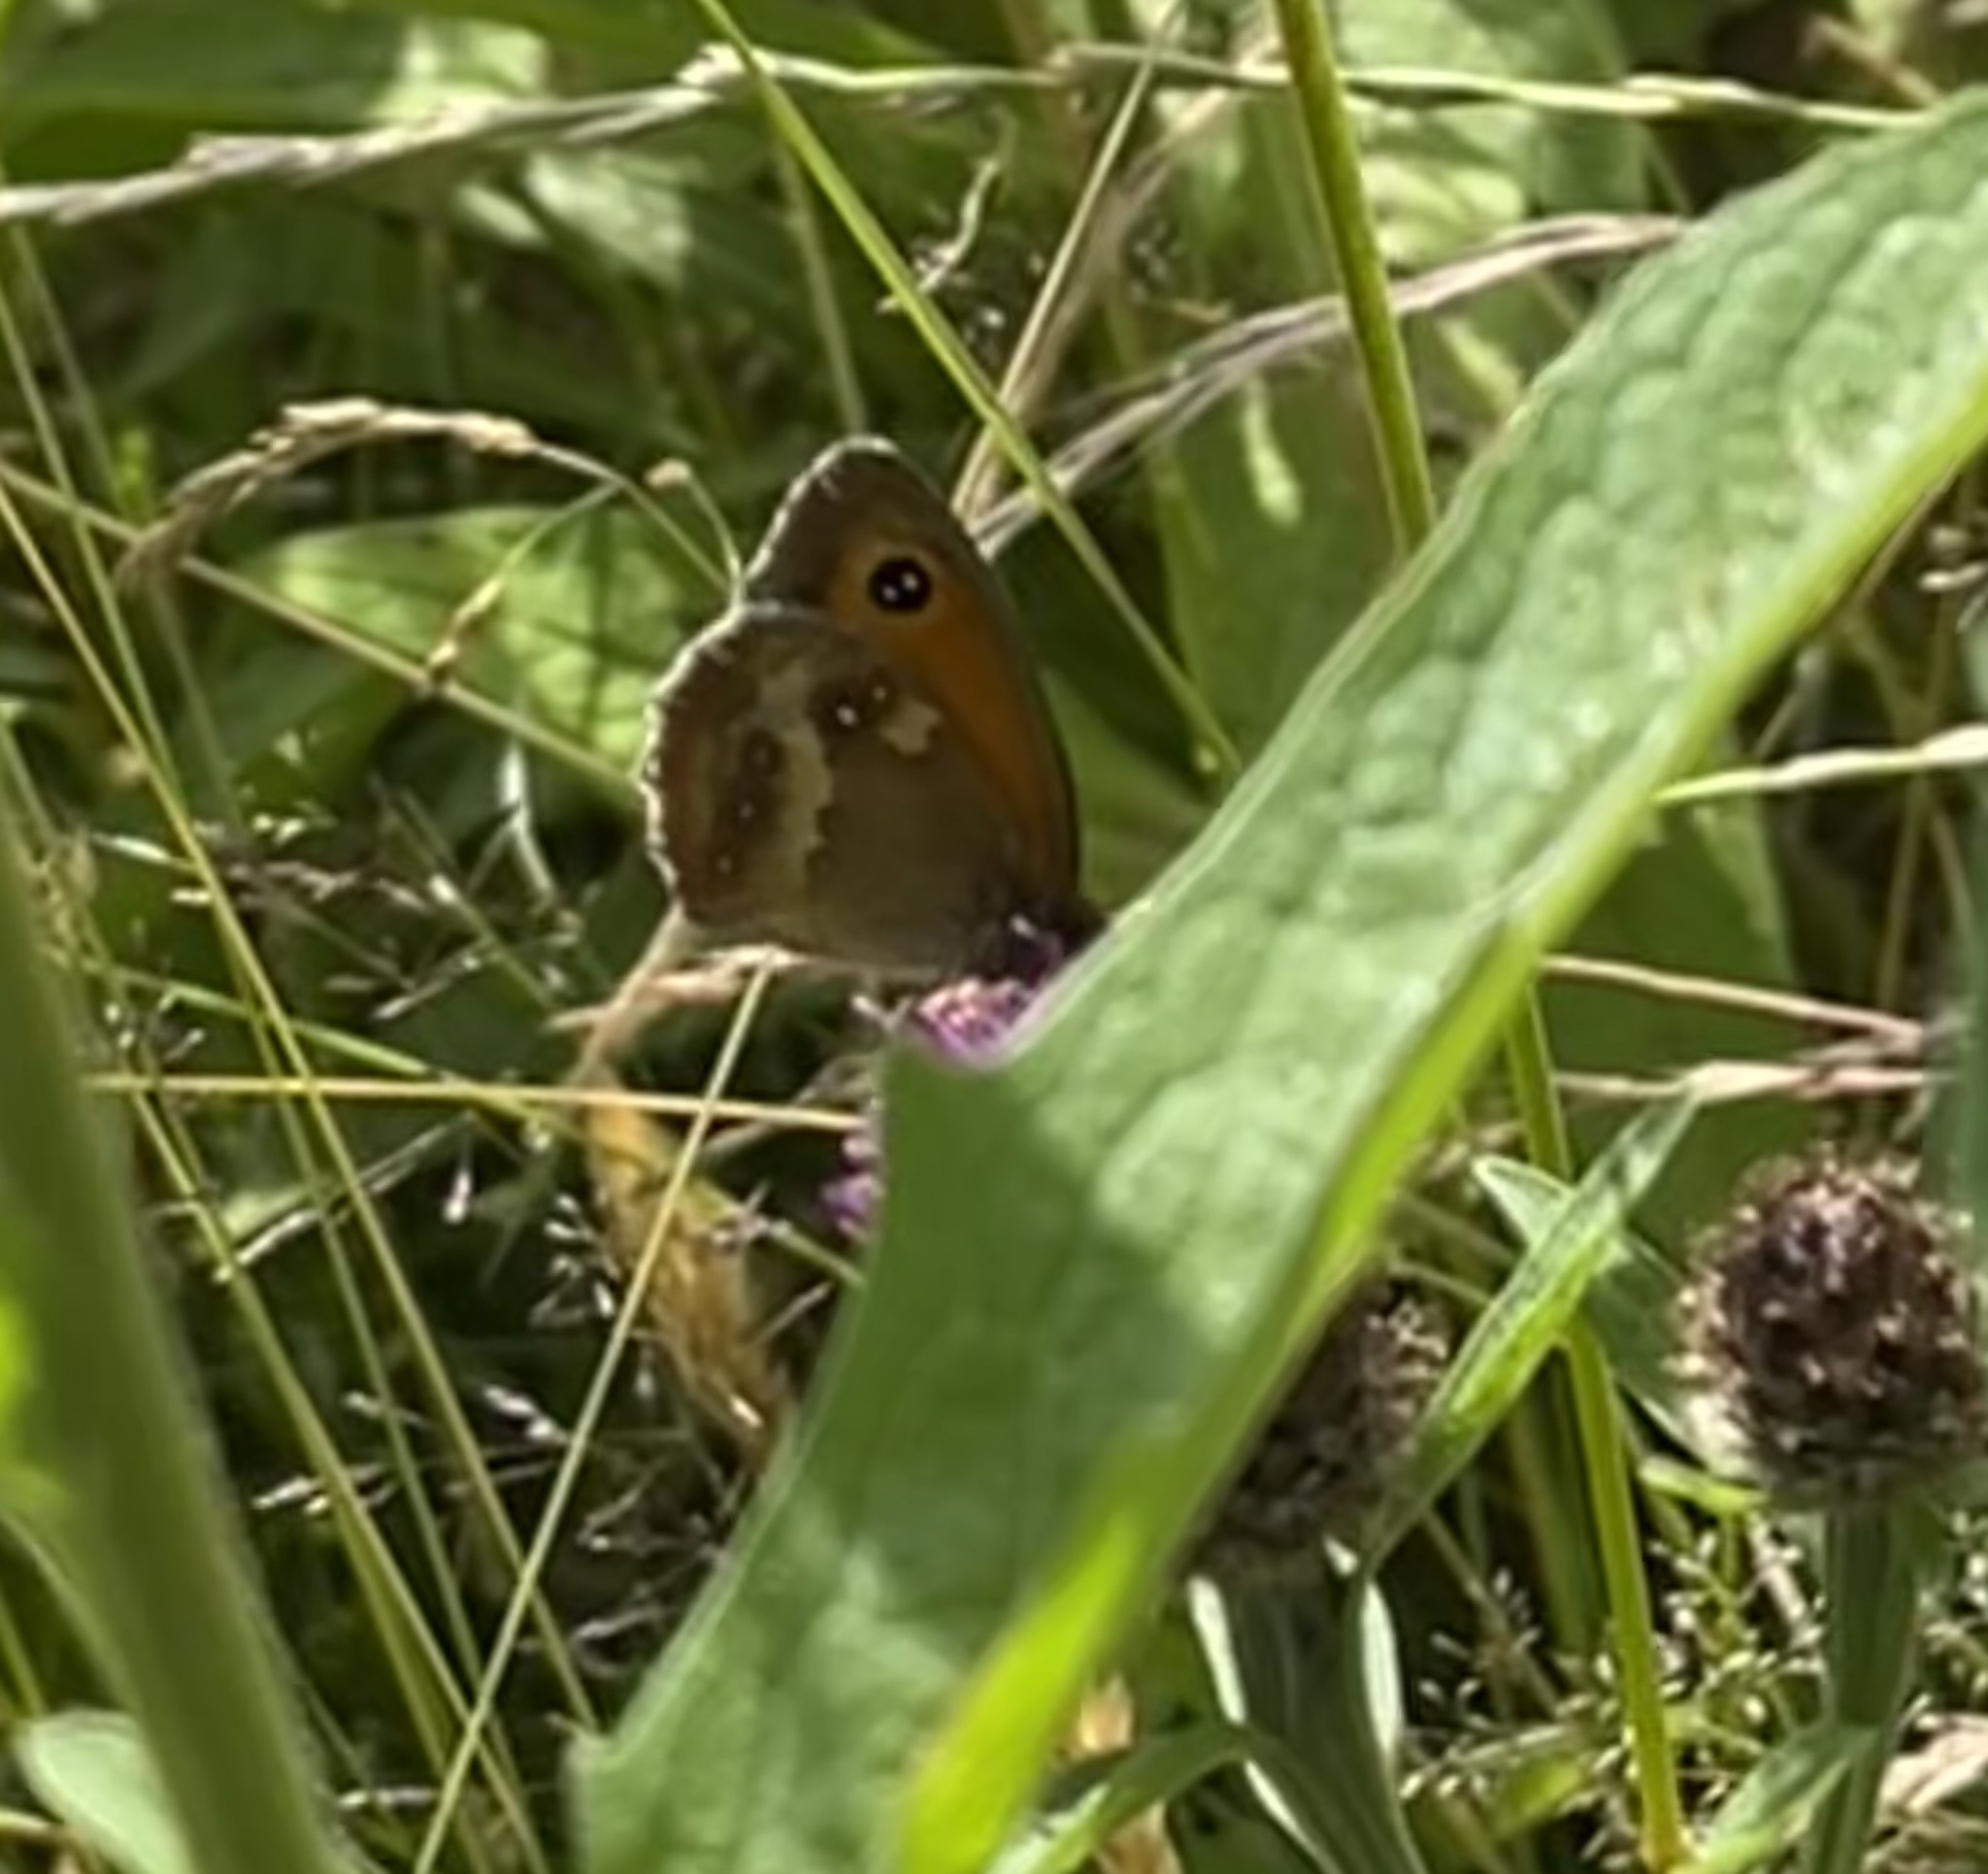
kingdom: Animalia
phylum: Arthropoda
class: Insecta
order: Lepidoptera
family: Nymphalidae
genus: Pyronia
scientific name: Pyronia tithonus
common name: Gatekeeper
